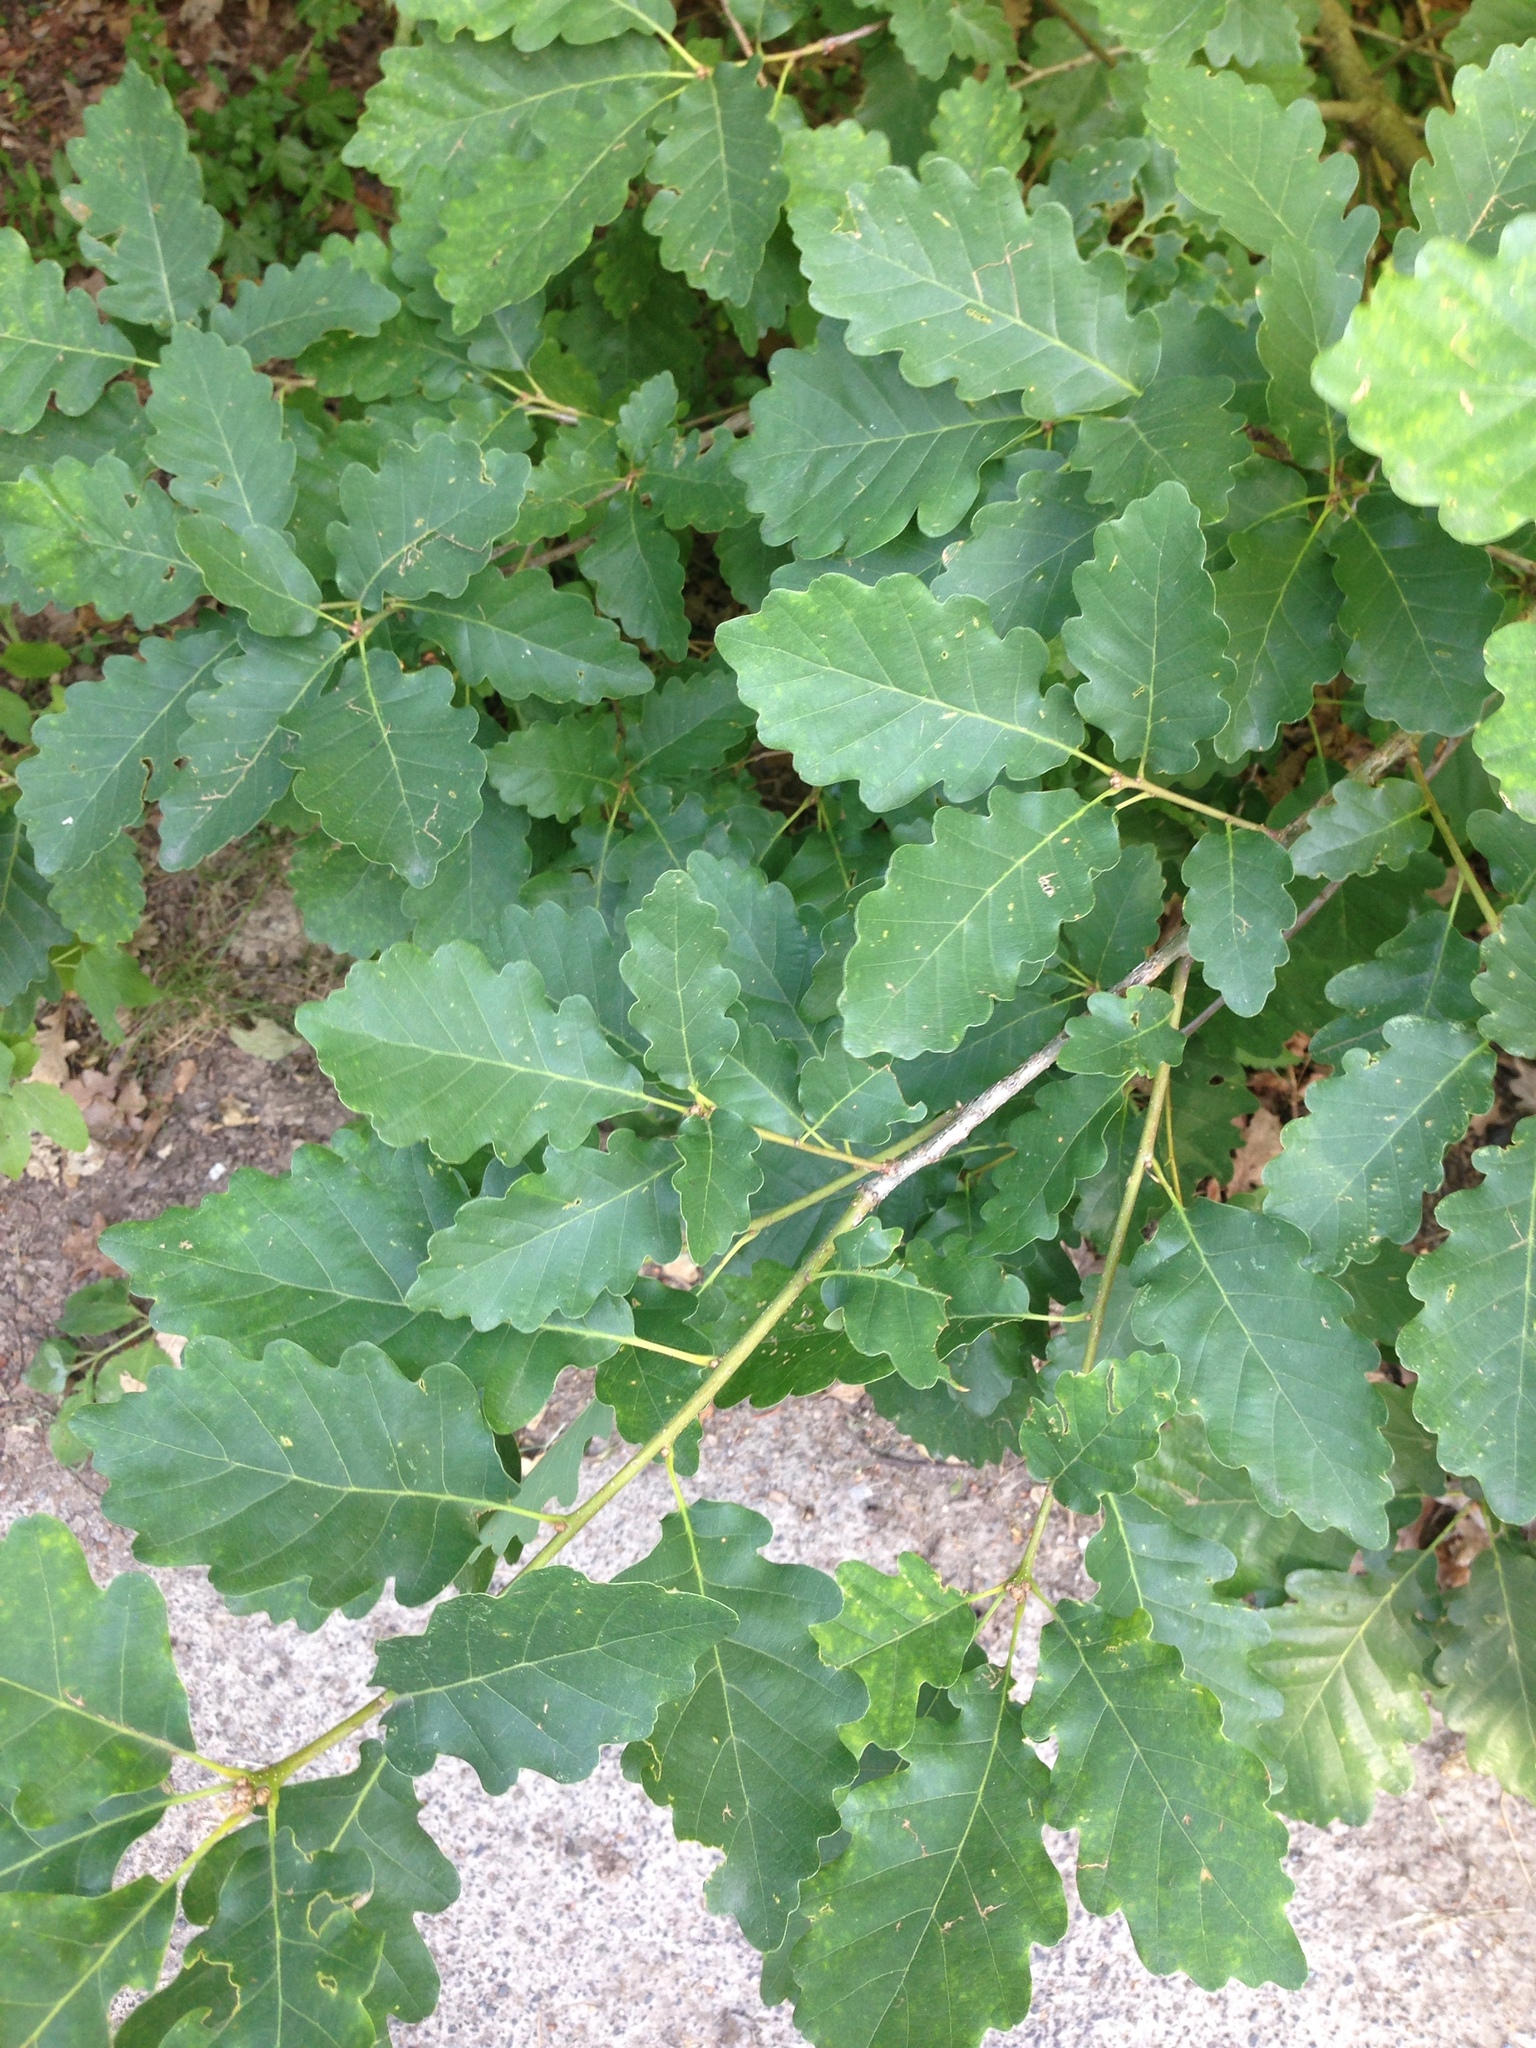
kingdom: Plantae
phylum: Tracheophyta
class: Magnoliopsida
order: Fagales
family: Fagaceae
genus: Quercus
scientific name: Quercus petraea
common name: Sessile oak
